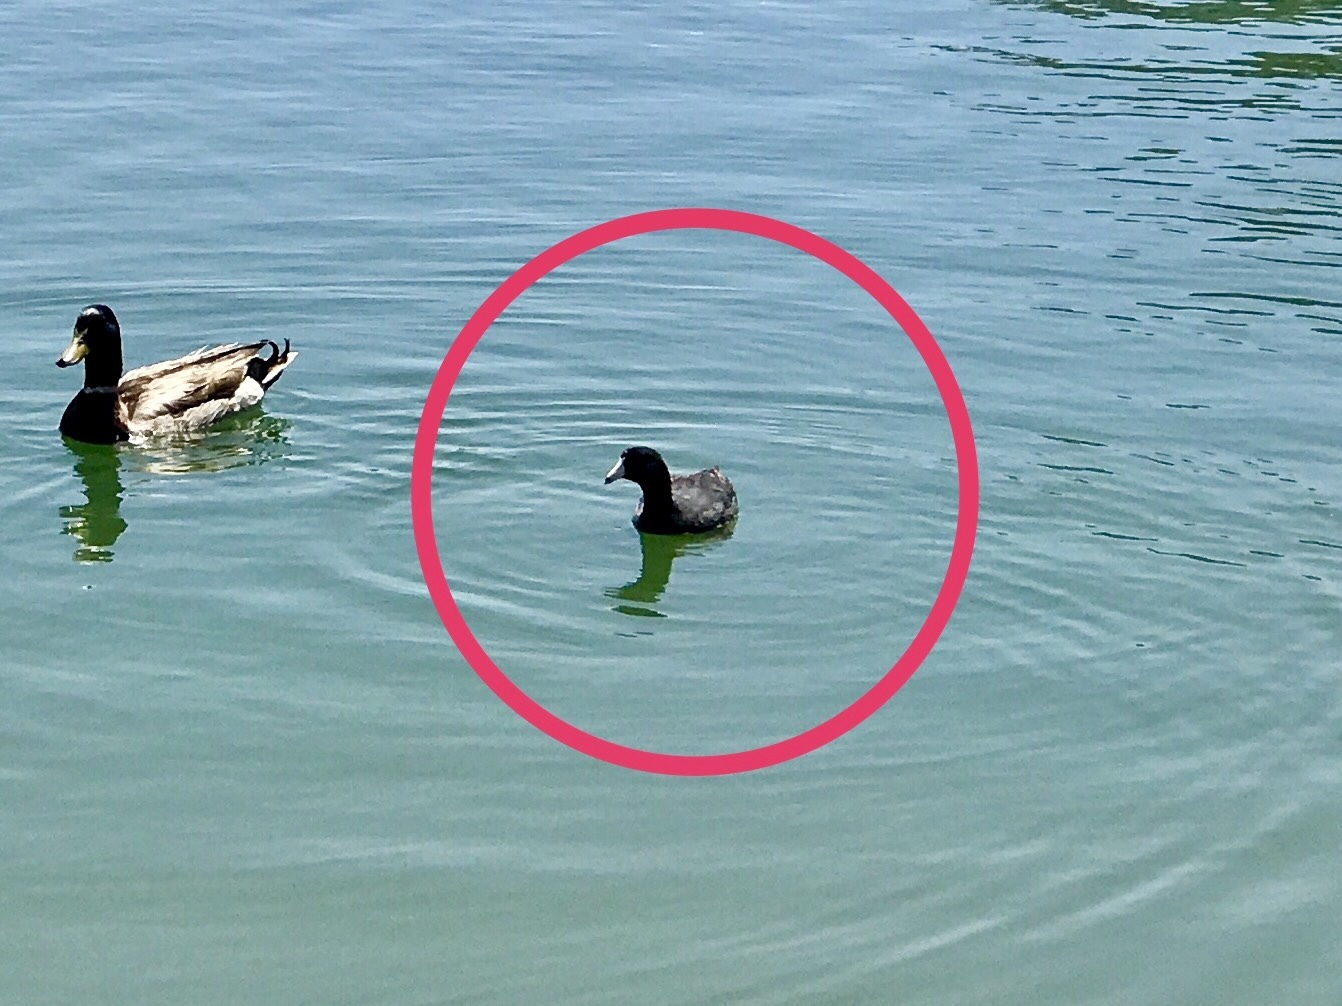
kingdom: Animalia
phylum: Chordata
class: Aves
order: Gruiformes
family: Rallidae
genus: Fulica
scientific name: Fulica americana
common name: American coot
